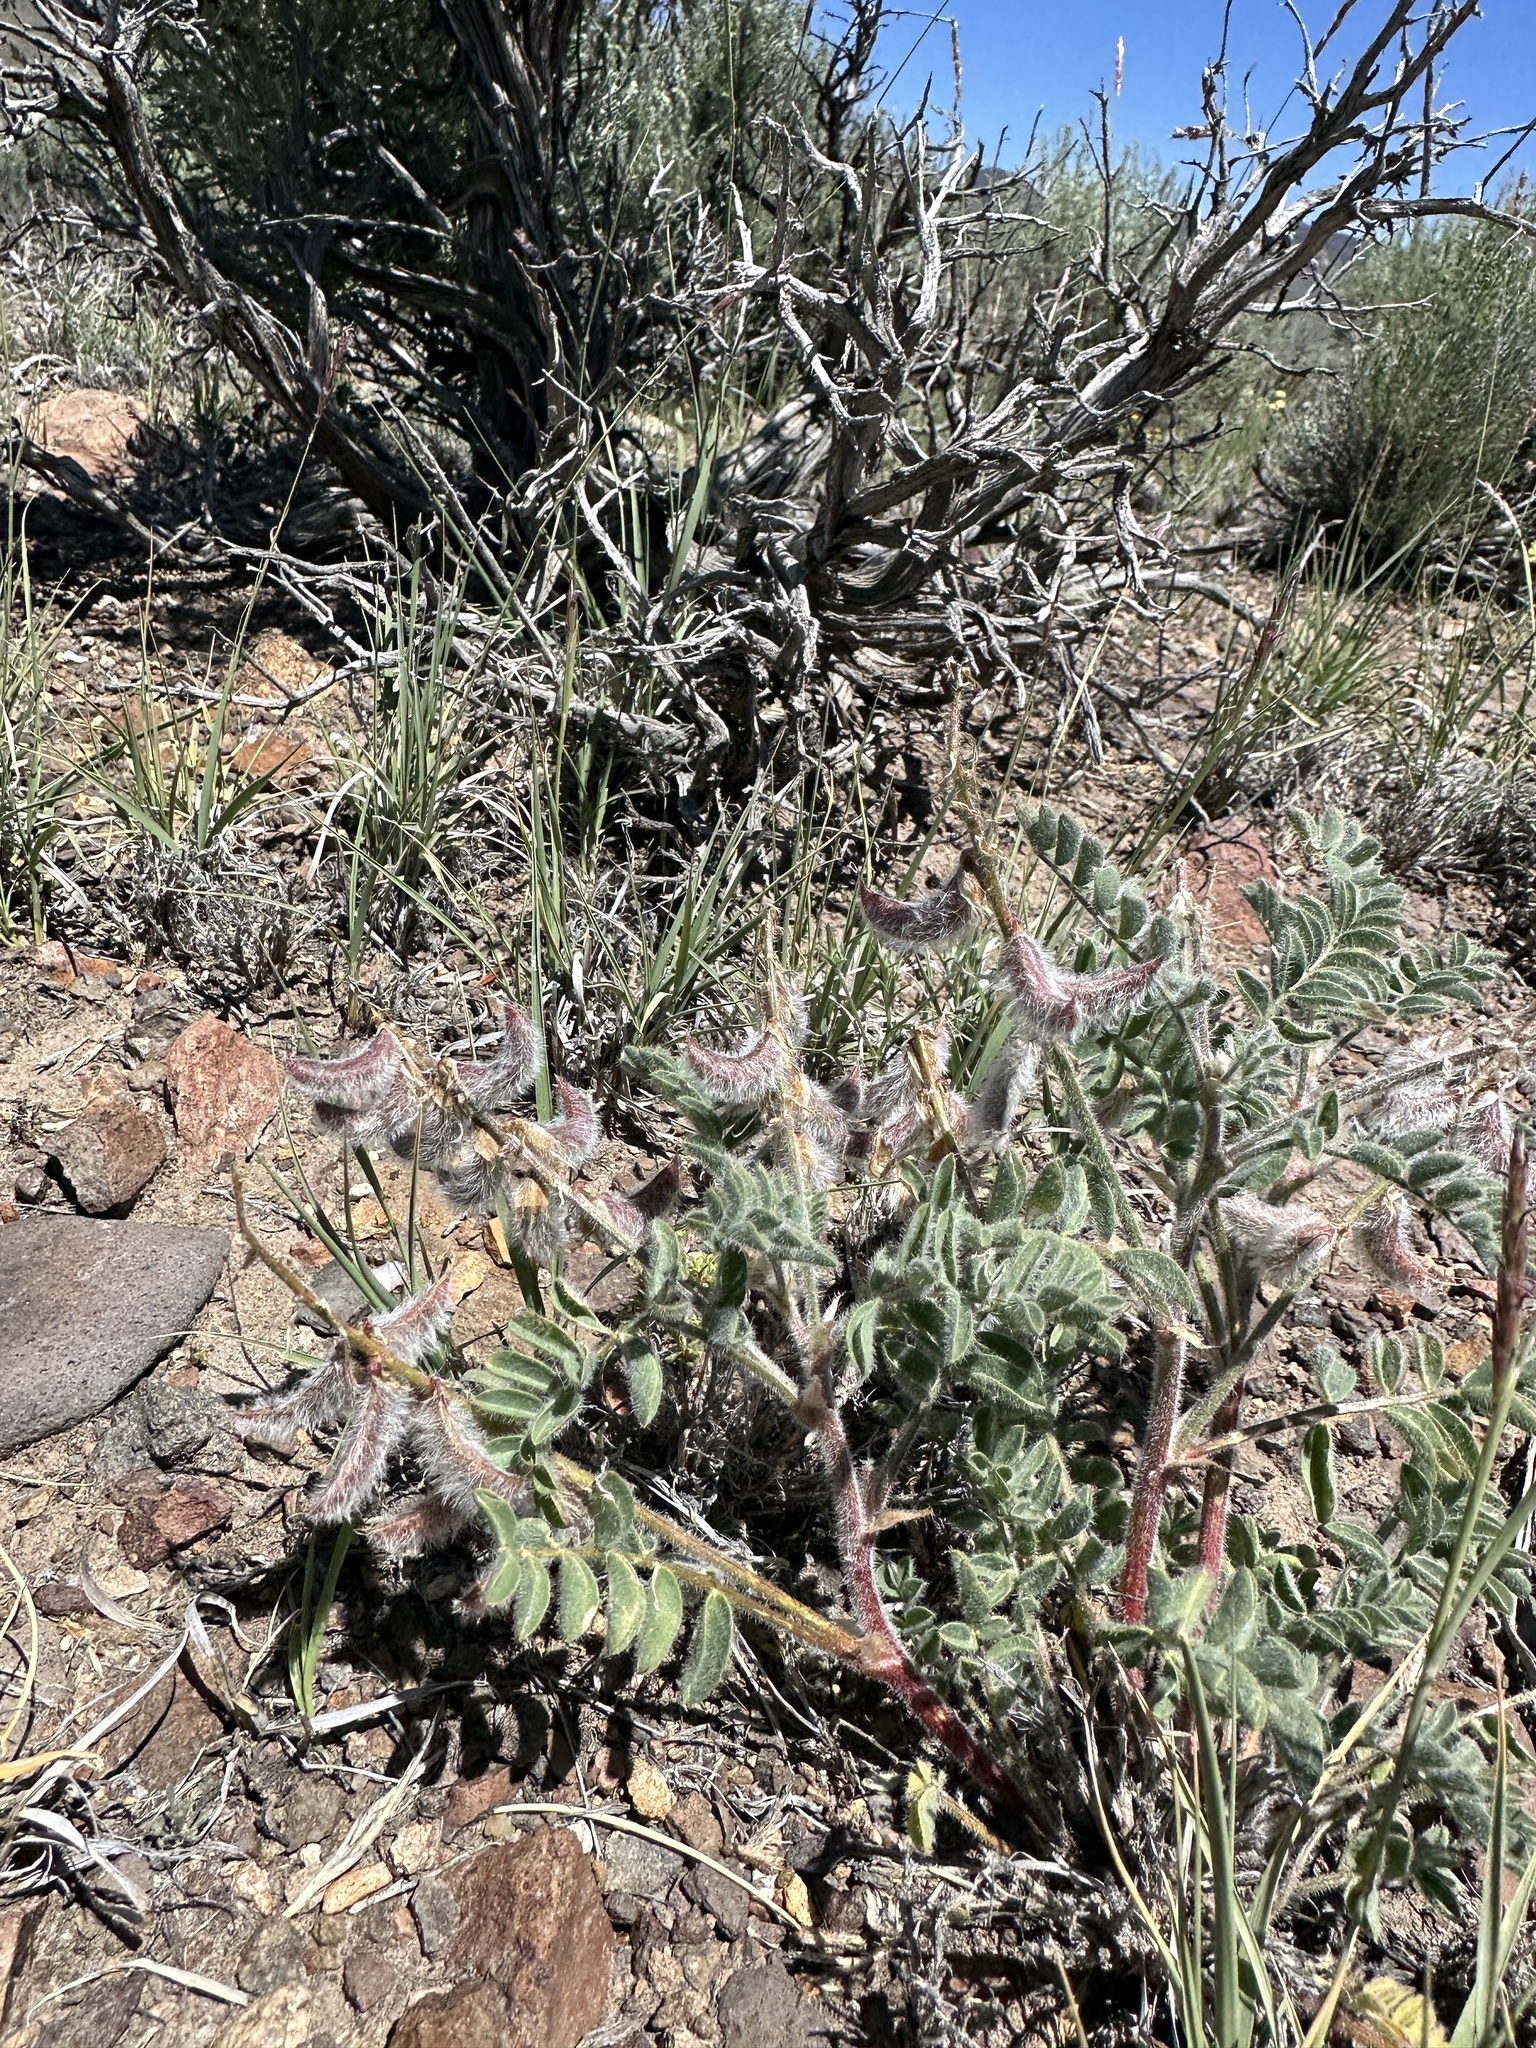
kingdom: Plantae
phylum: Tracheophyta
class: Magnoliopsida
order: Fabales
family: Fabaceae
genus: Astragalus
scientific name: Astragalus malacus
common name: Shaggy milk-vetch
